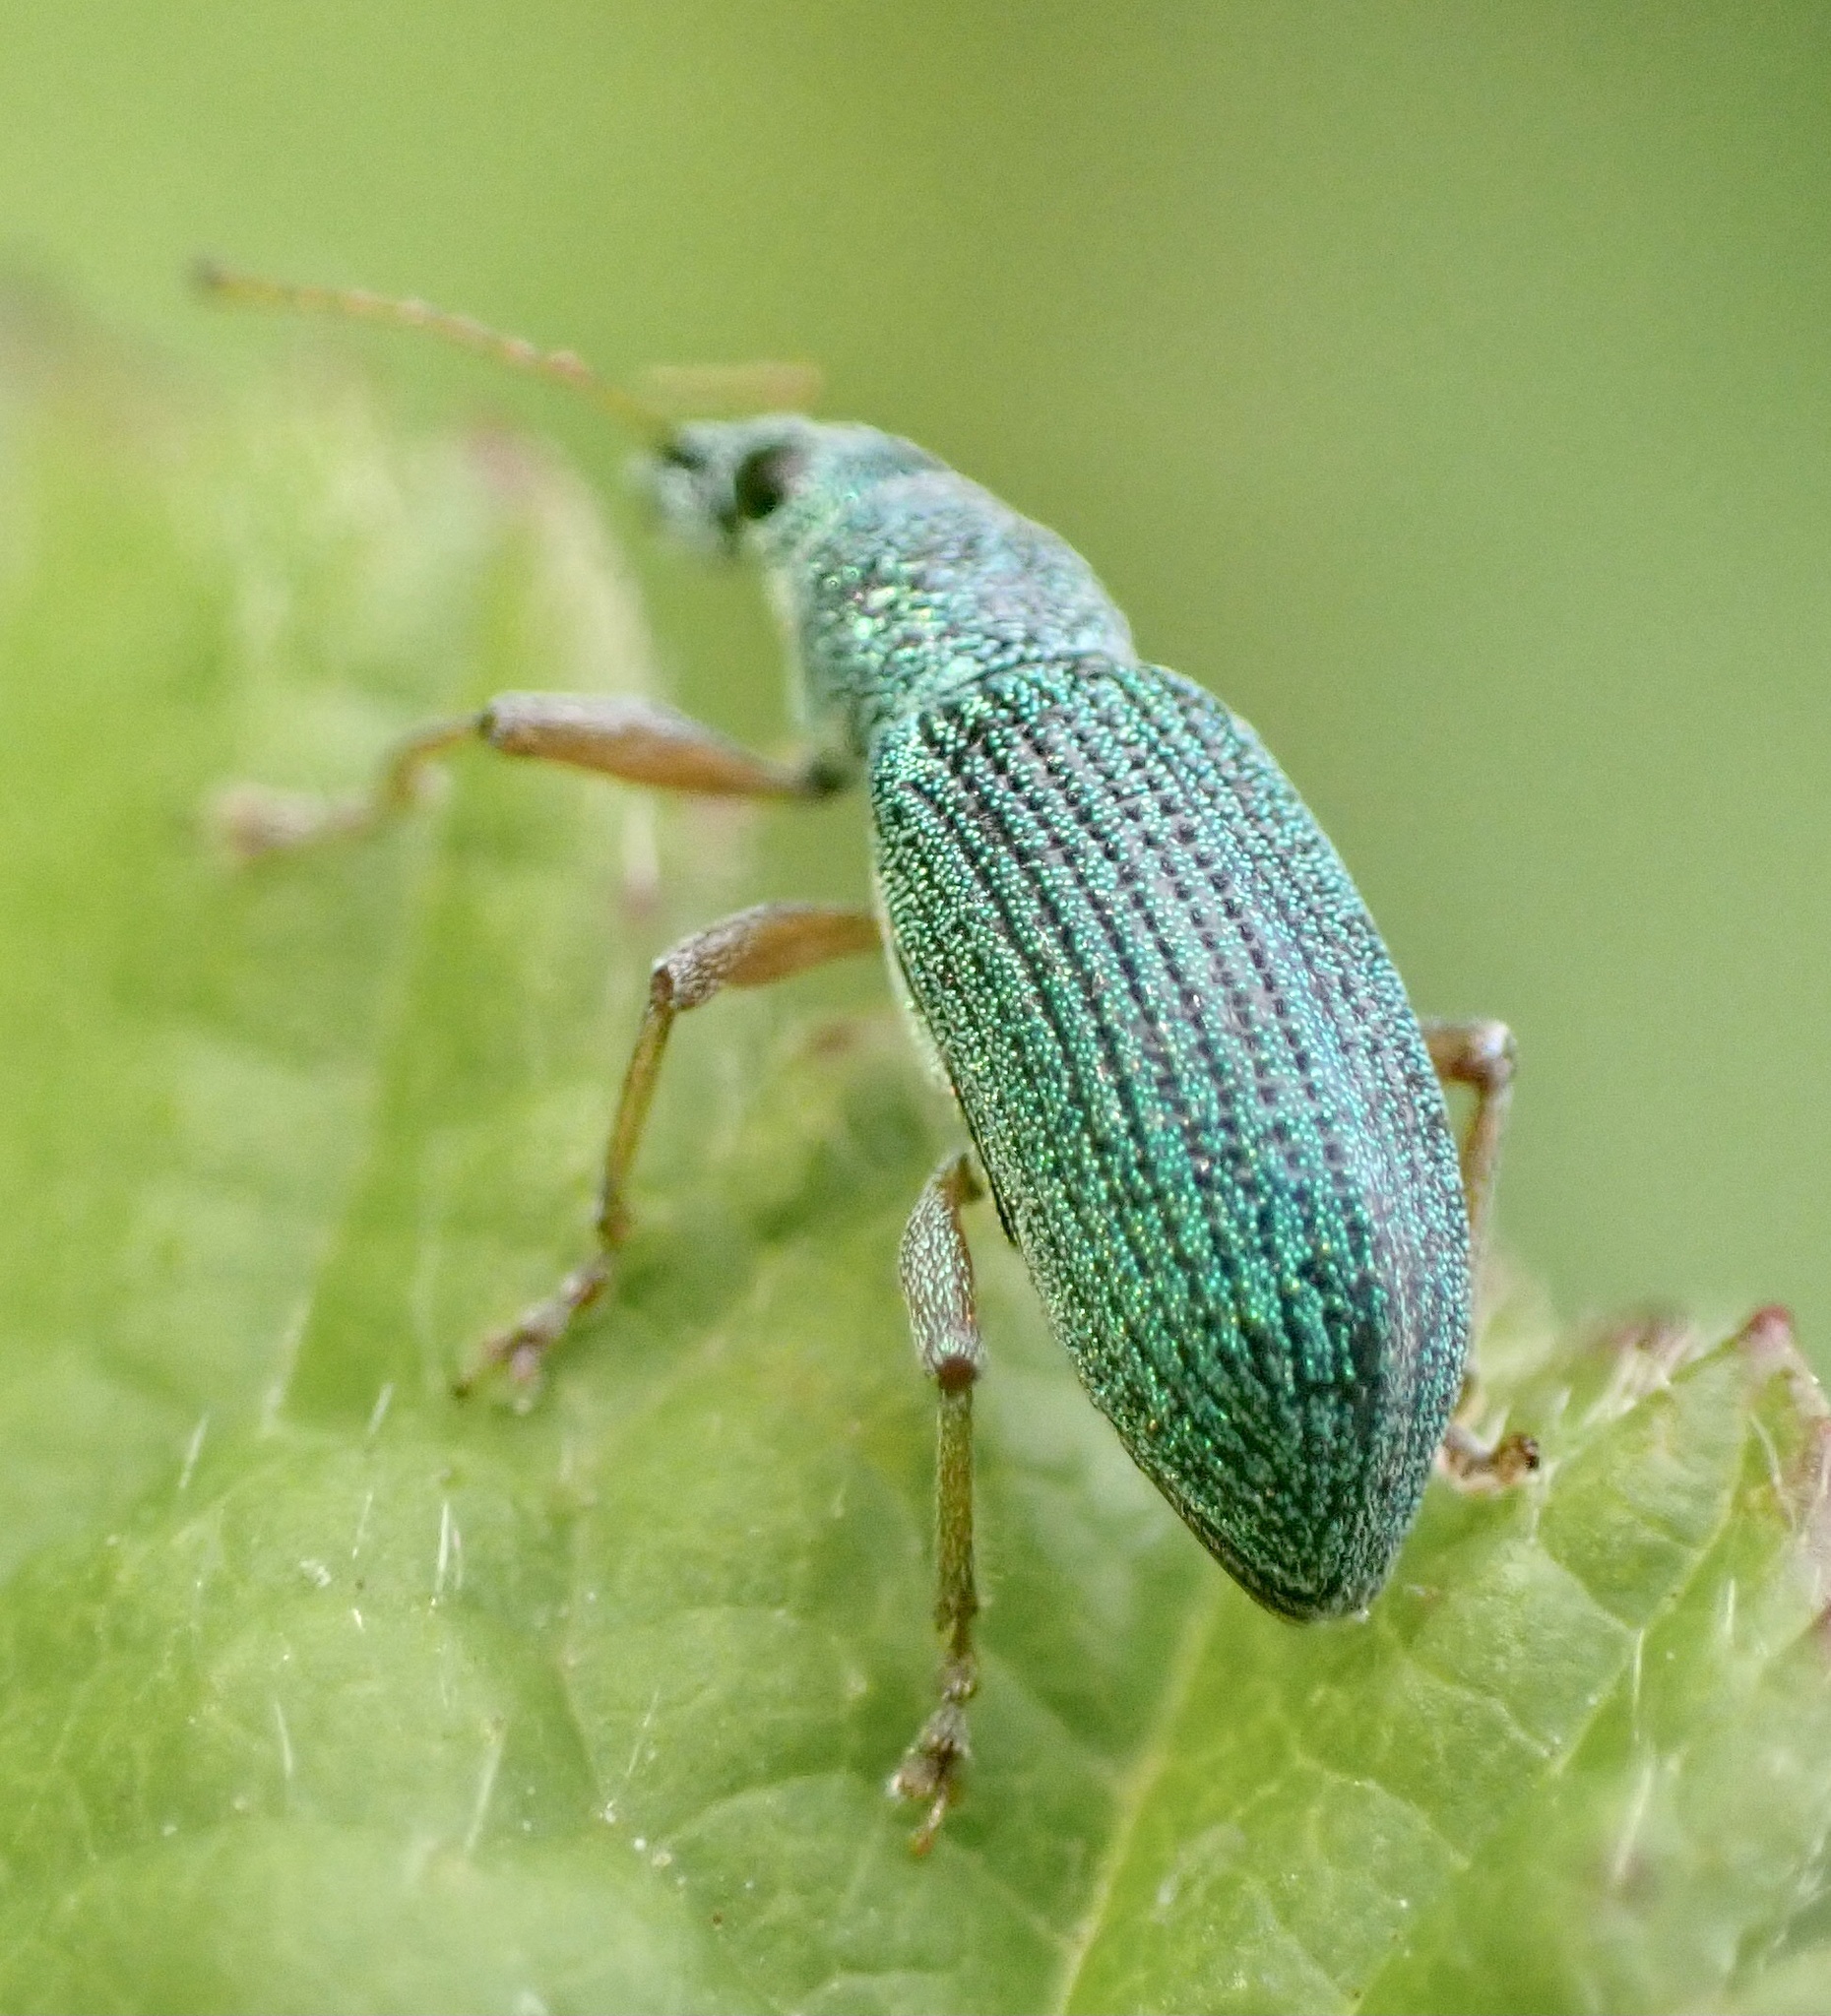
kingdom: Animalia
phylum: Arthropoda
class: Insecta
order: Coleoptera
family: Curculionidae
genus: Polydrusus
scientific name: Polydrusus formosus
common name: Weevil
